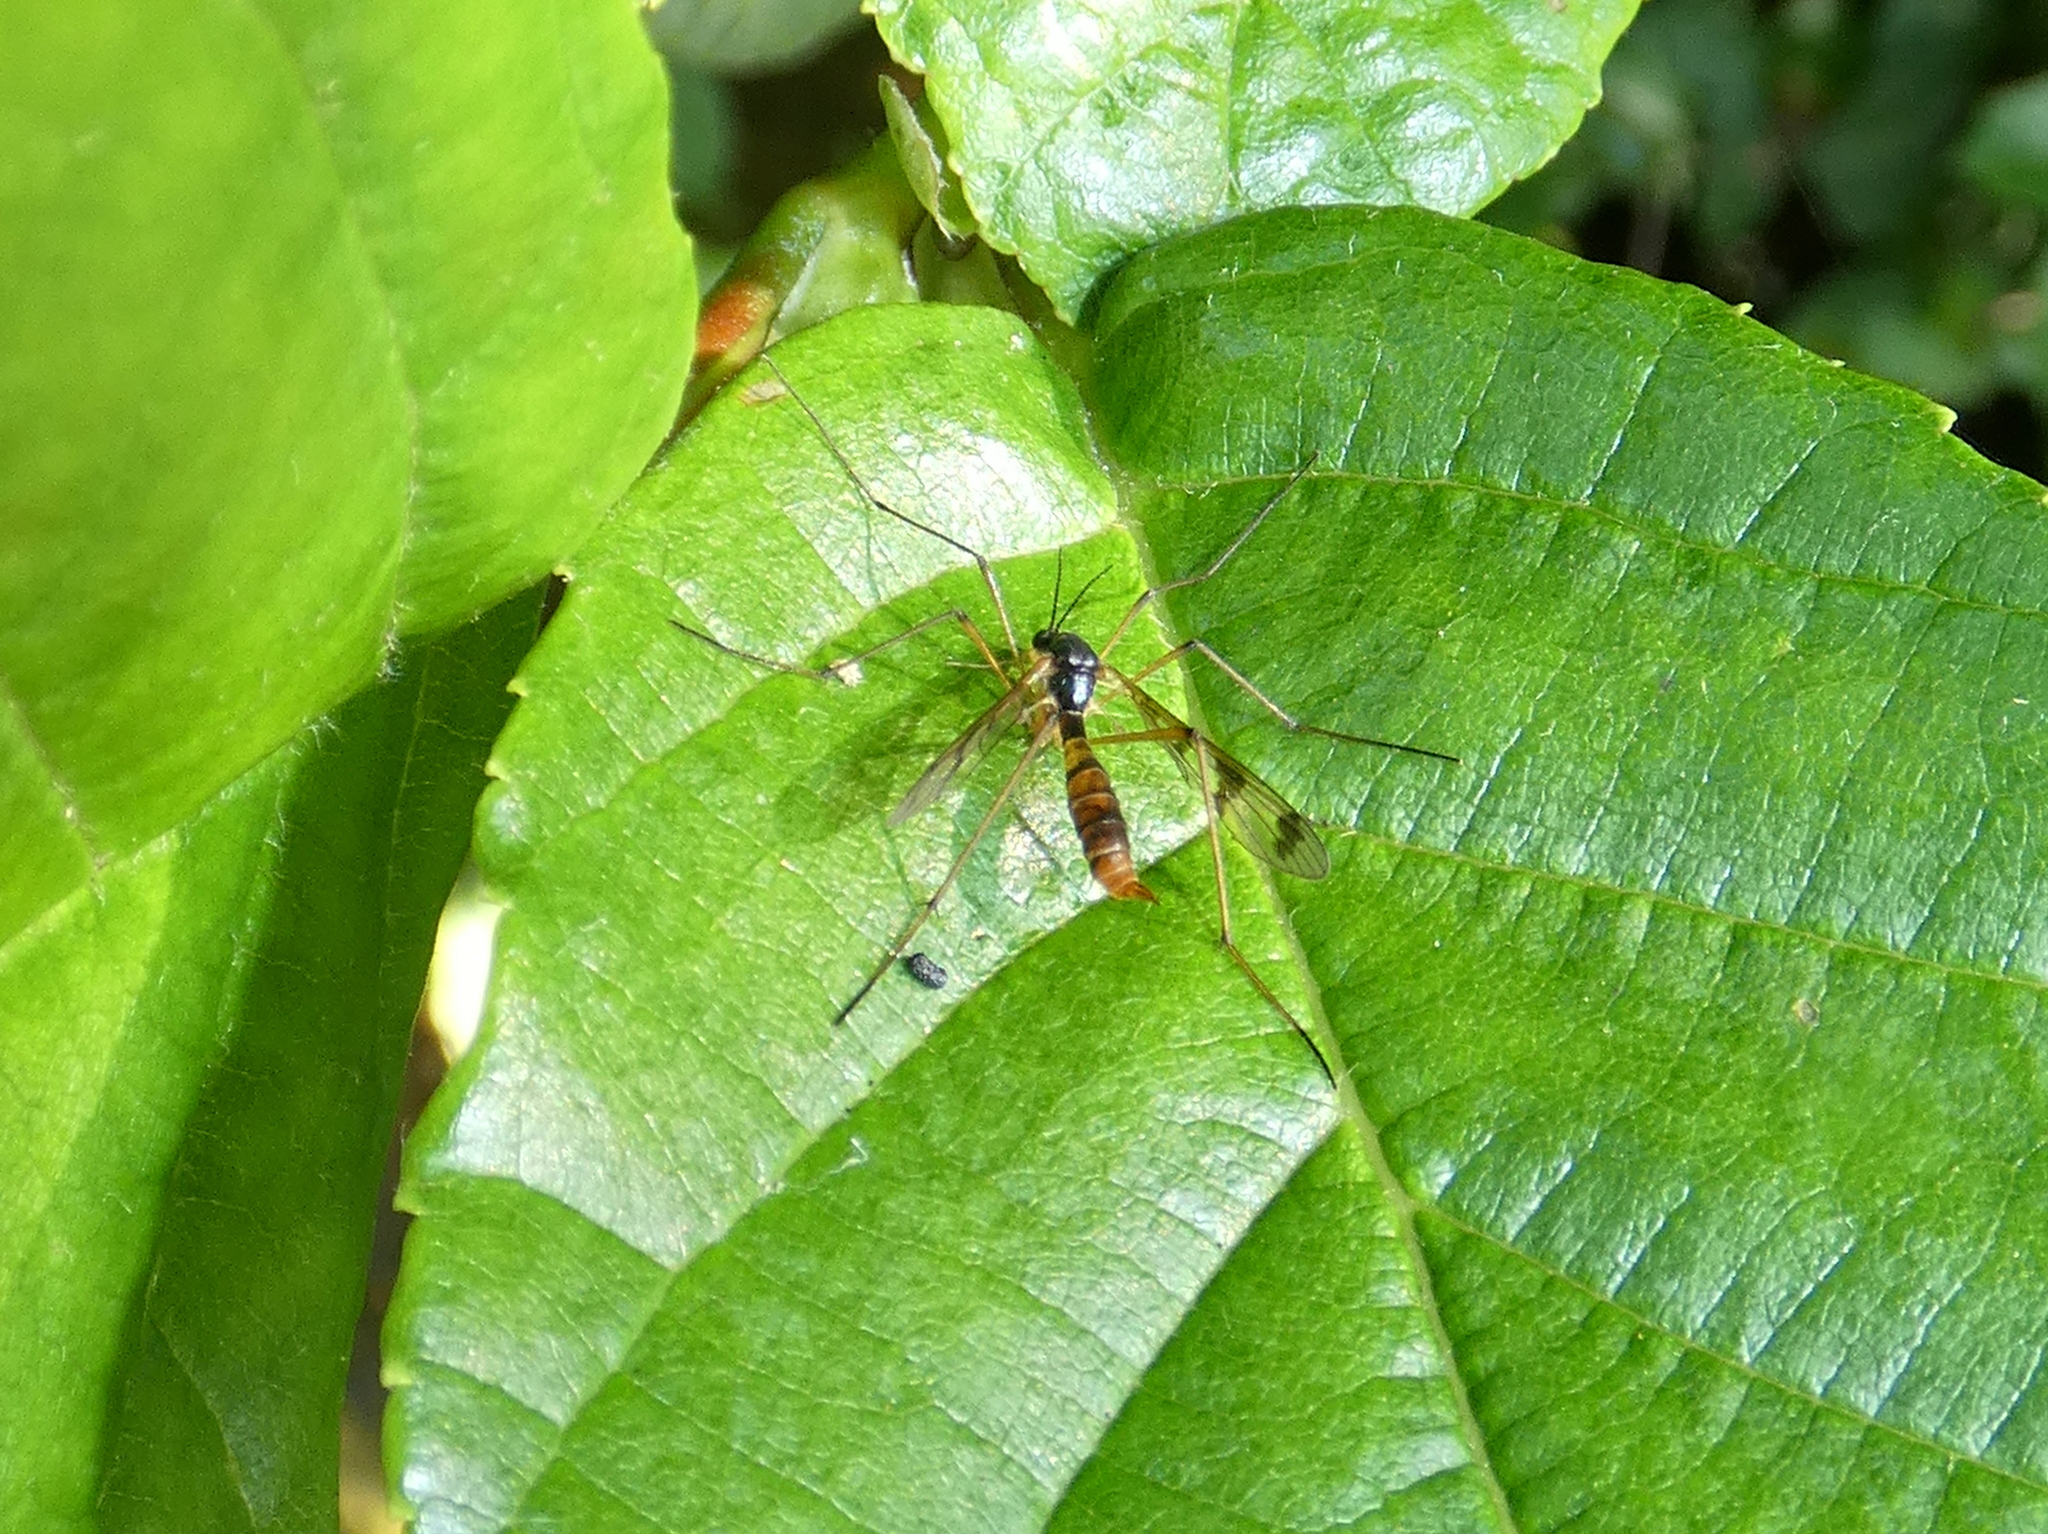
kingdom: Animalia
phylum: Arthropoda
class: Insecta
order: Diptera
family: Ptychopteridae
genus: Ptychoptera
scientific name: Ptychoptera quadrifasciata
